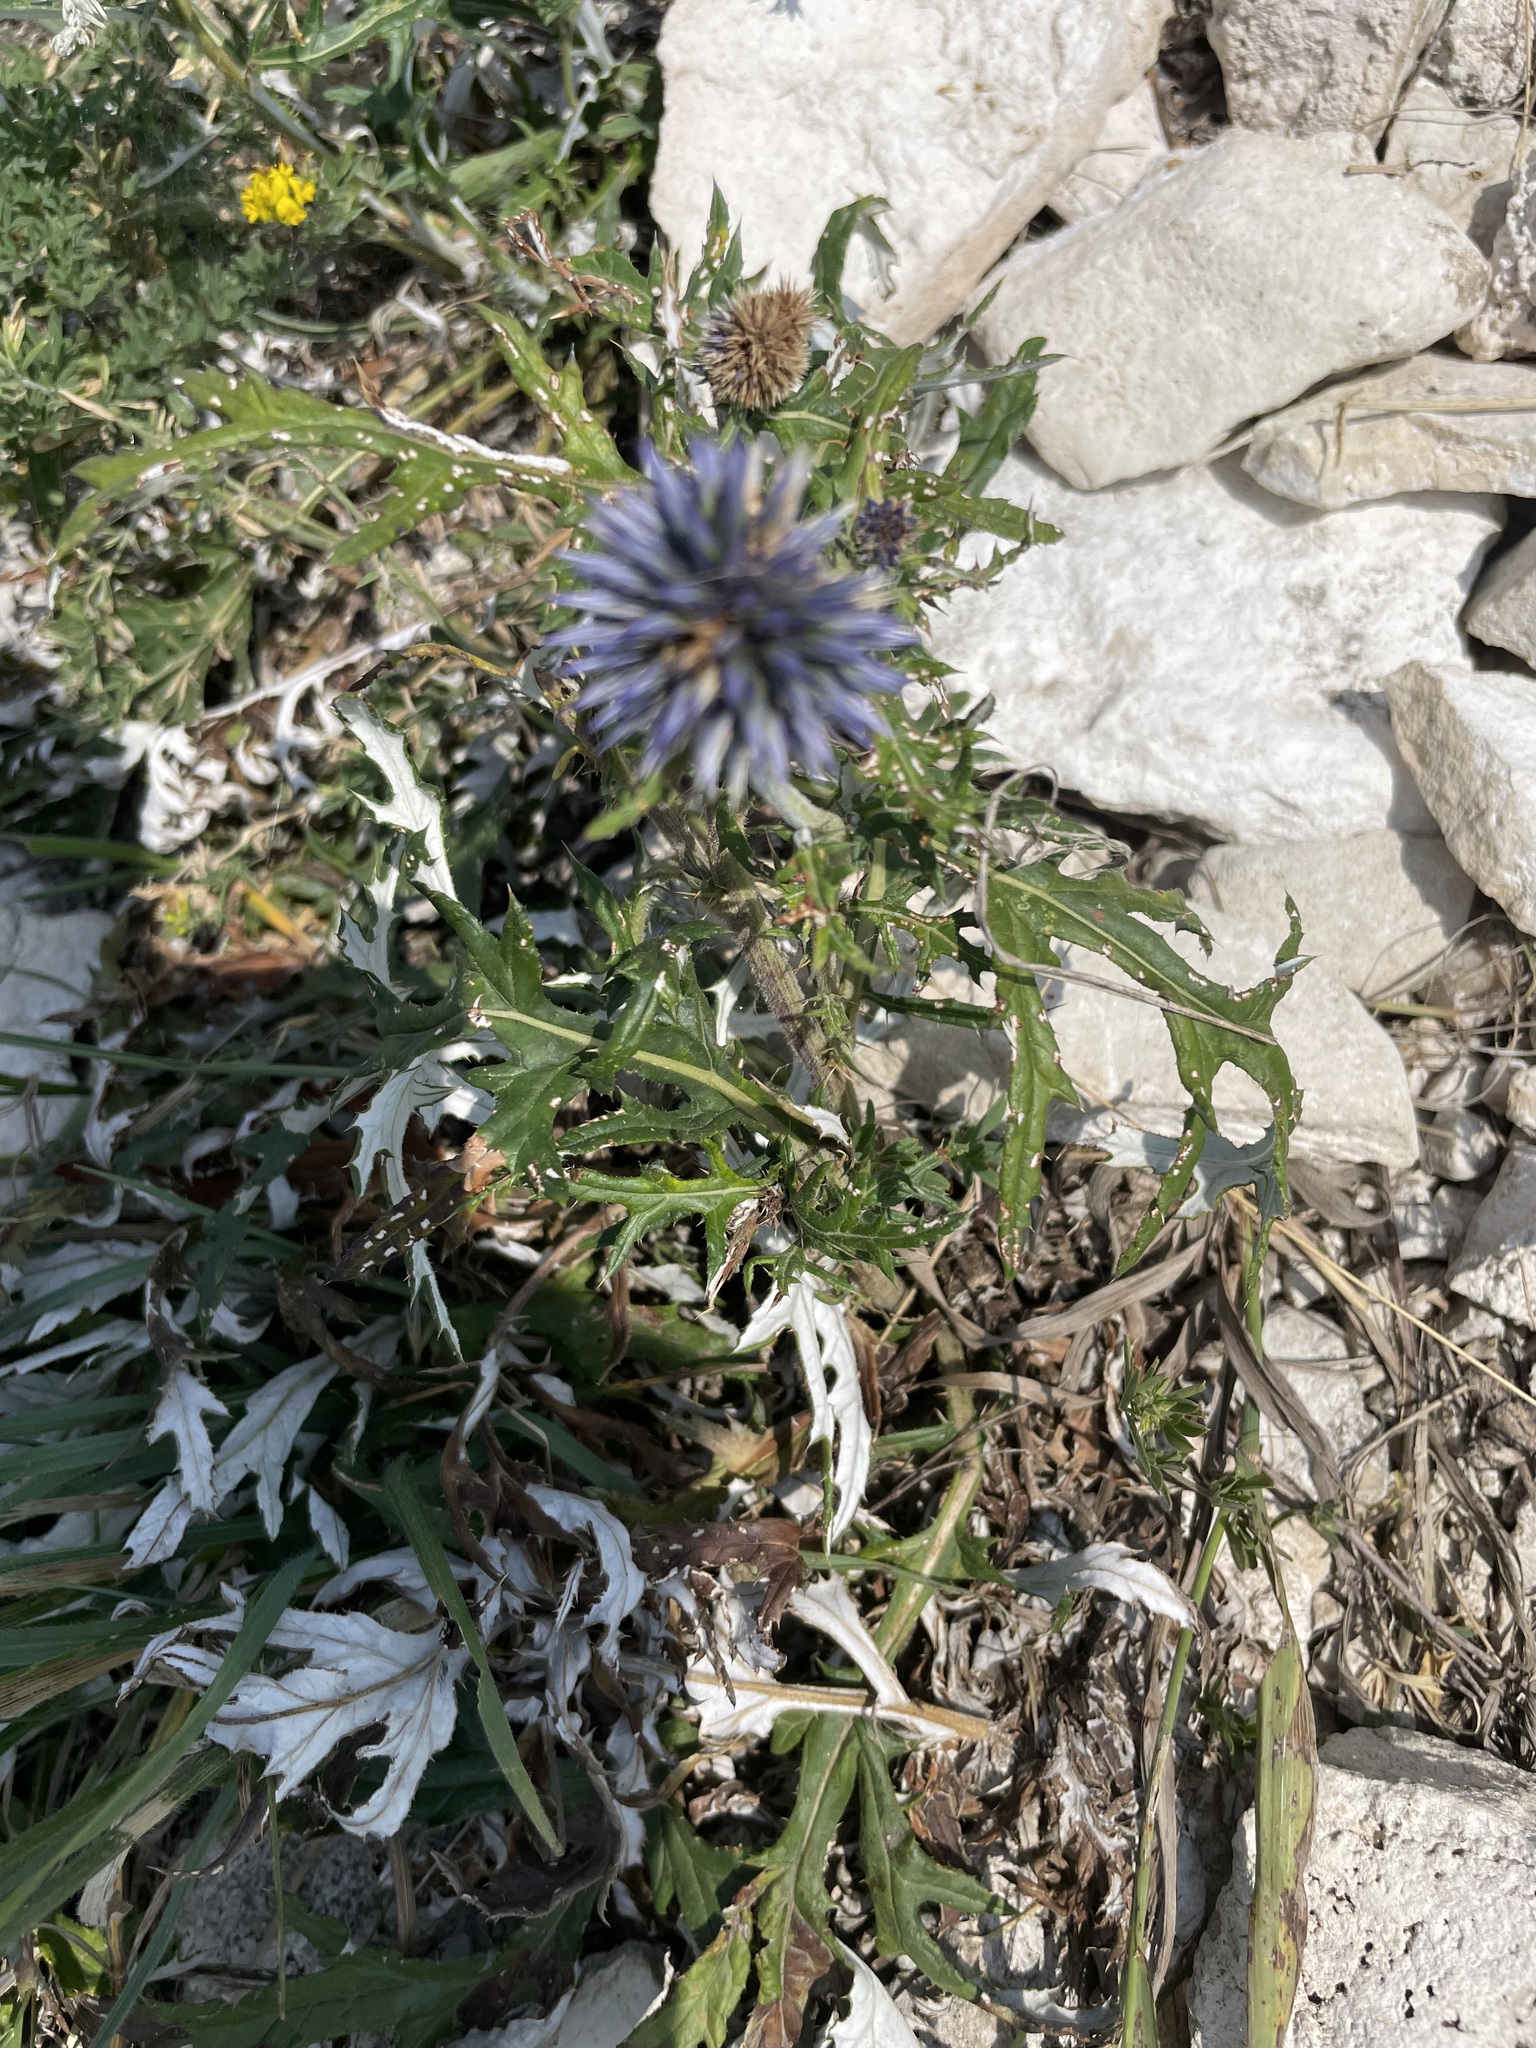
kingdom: Plantae
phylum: Tracheophyta
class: Magnoliopsida
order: Asterales
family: Asteraceae
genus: Echinops
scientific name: Echinops ritro
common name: Globe thistle
